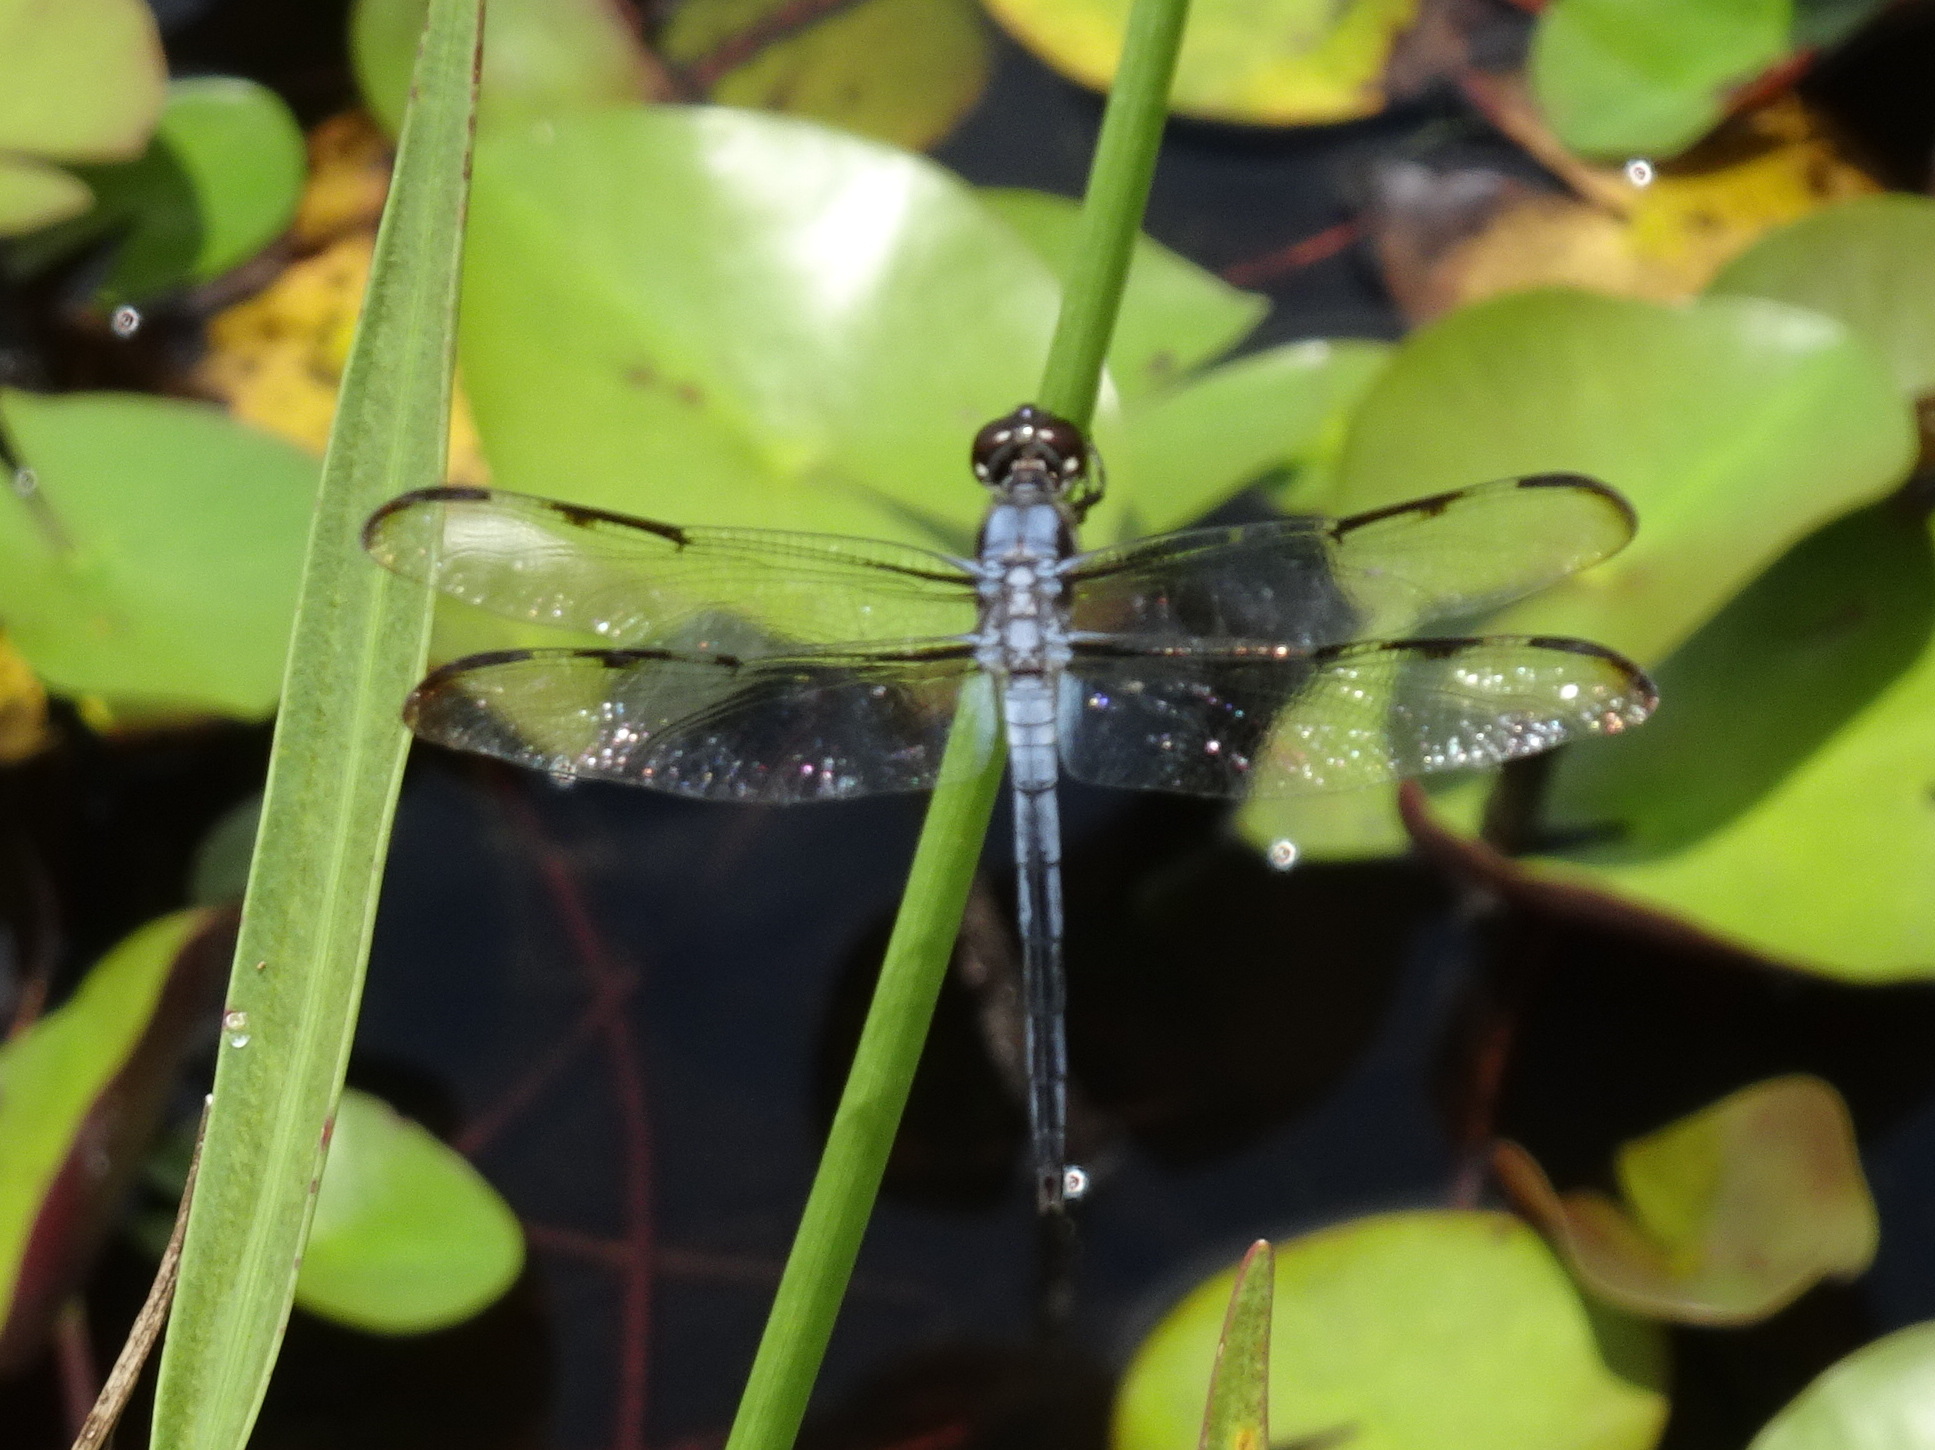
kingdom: Animalia
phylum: Arthropoda
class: Insecta
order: Odonata
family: Libellulidae
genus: Libellula
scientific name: Libellula axilena
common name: Bar-winged skimmer
